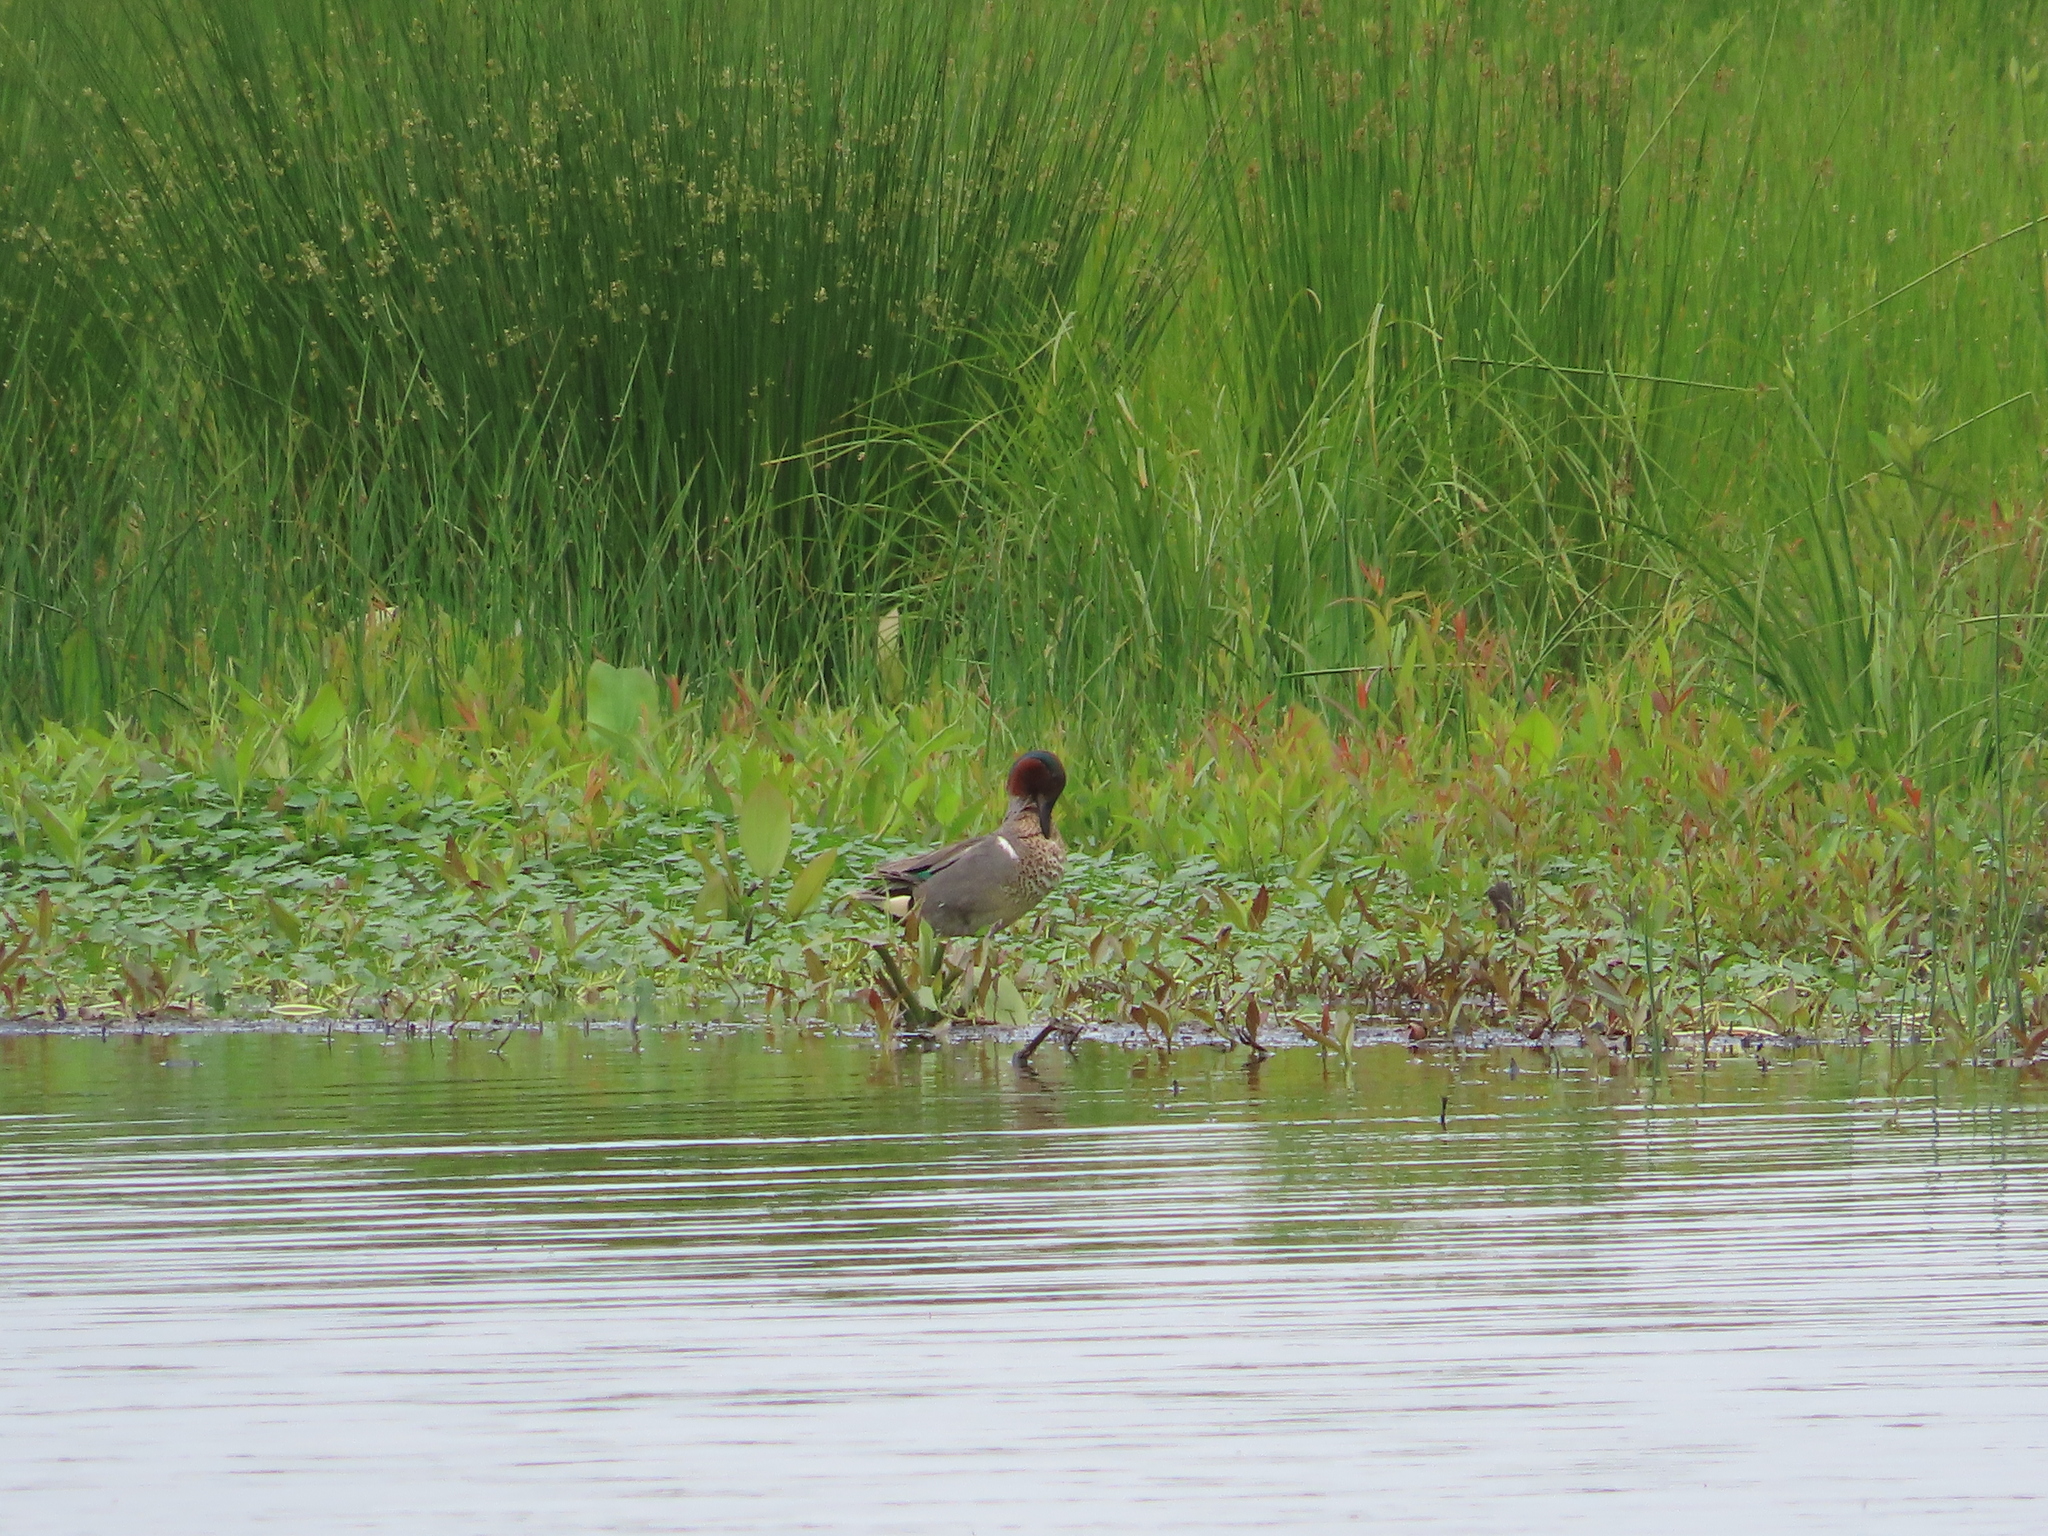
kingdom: Animalia
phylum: Chordata
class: Aves
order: Anseriformes
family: Anatidae
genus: Anas
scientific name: Anas crecca
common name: Eurasian teal
